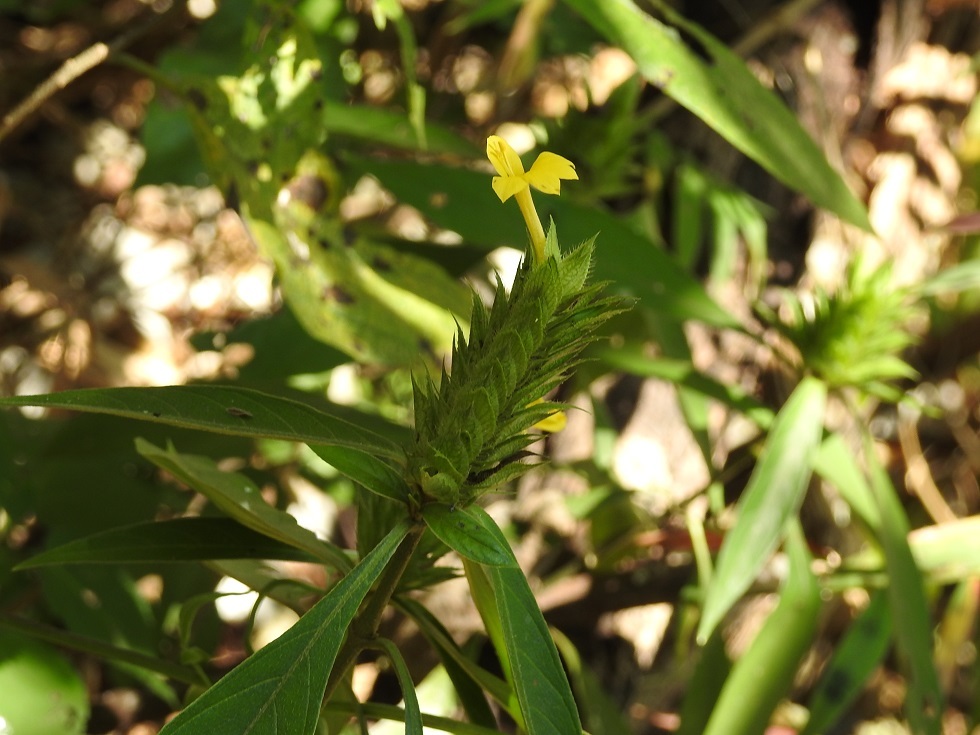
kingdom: Plantae
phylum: Tracheophyta
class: Magnoliopsida
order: Lamiales
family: Acanthaceae
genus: Barleria
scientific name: Barleria oenotheroides
